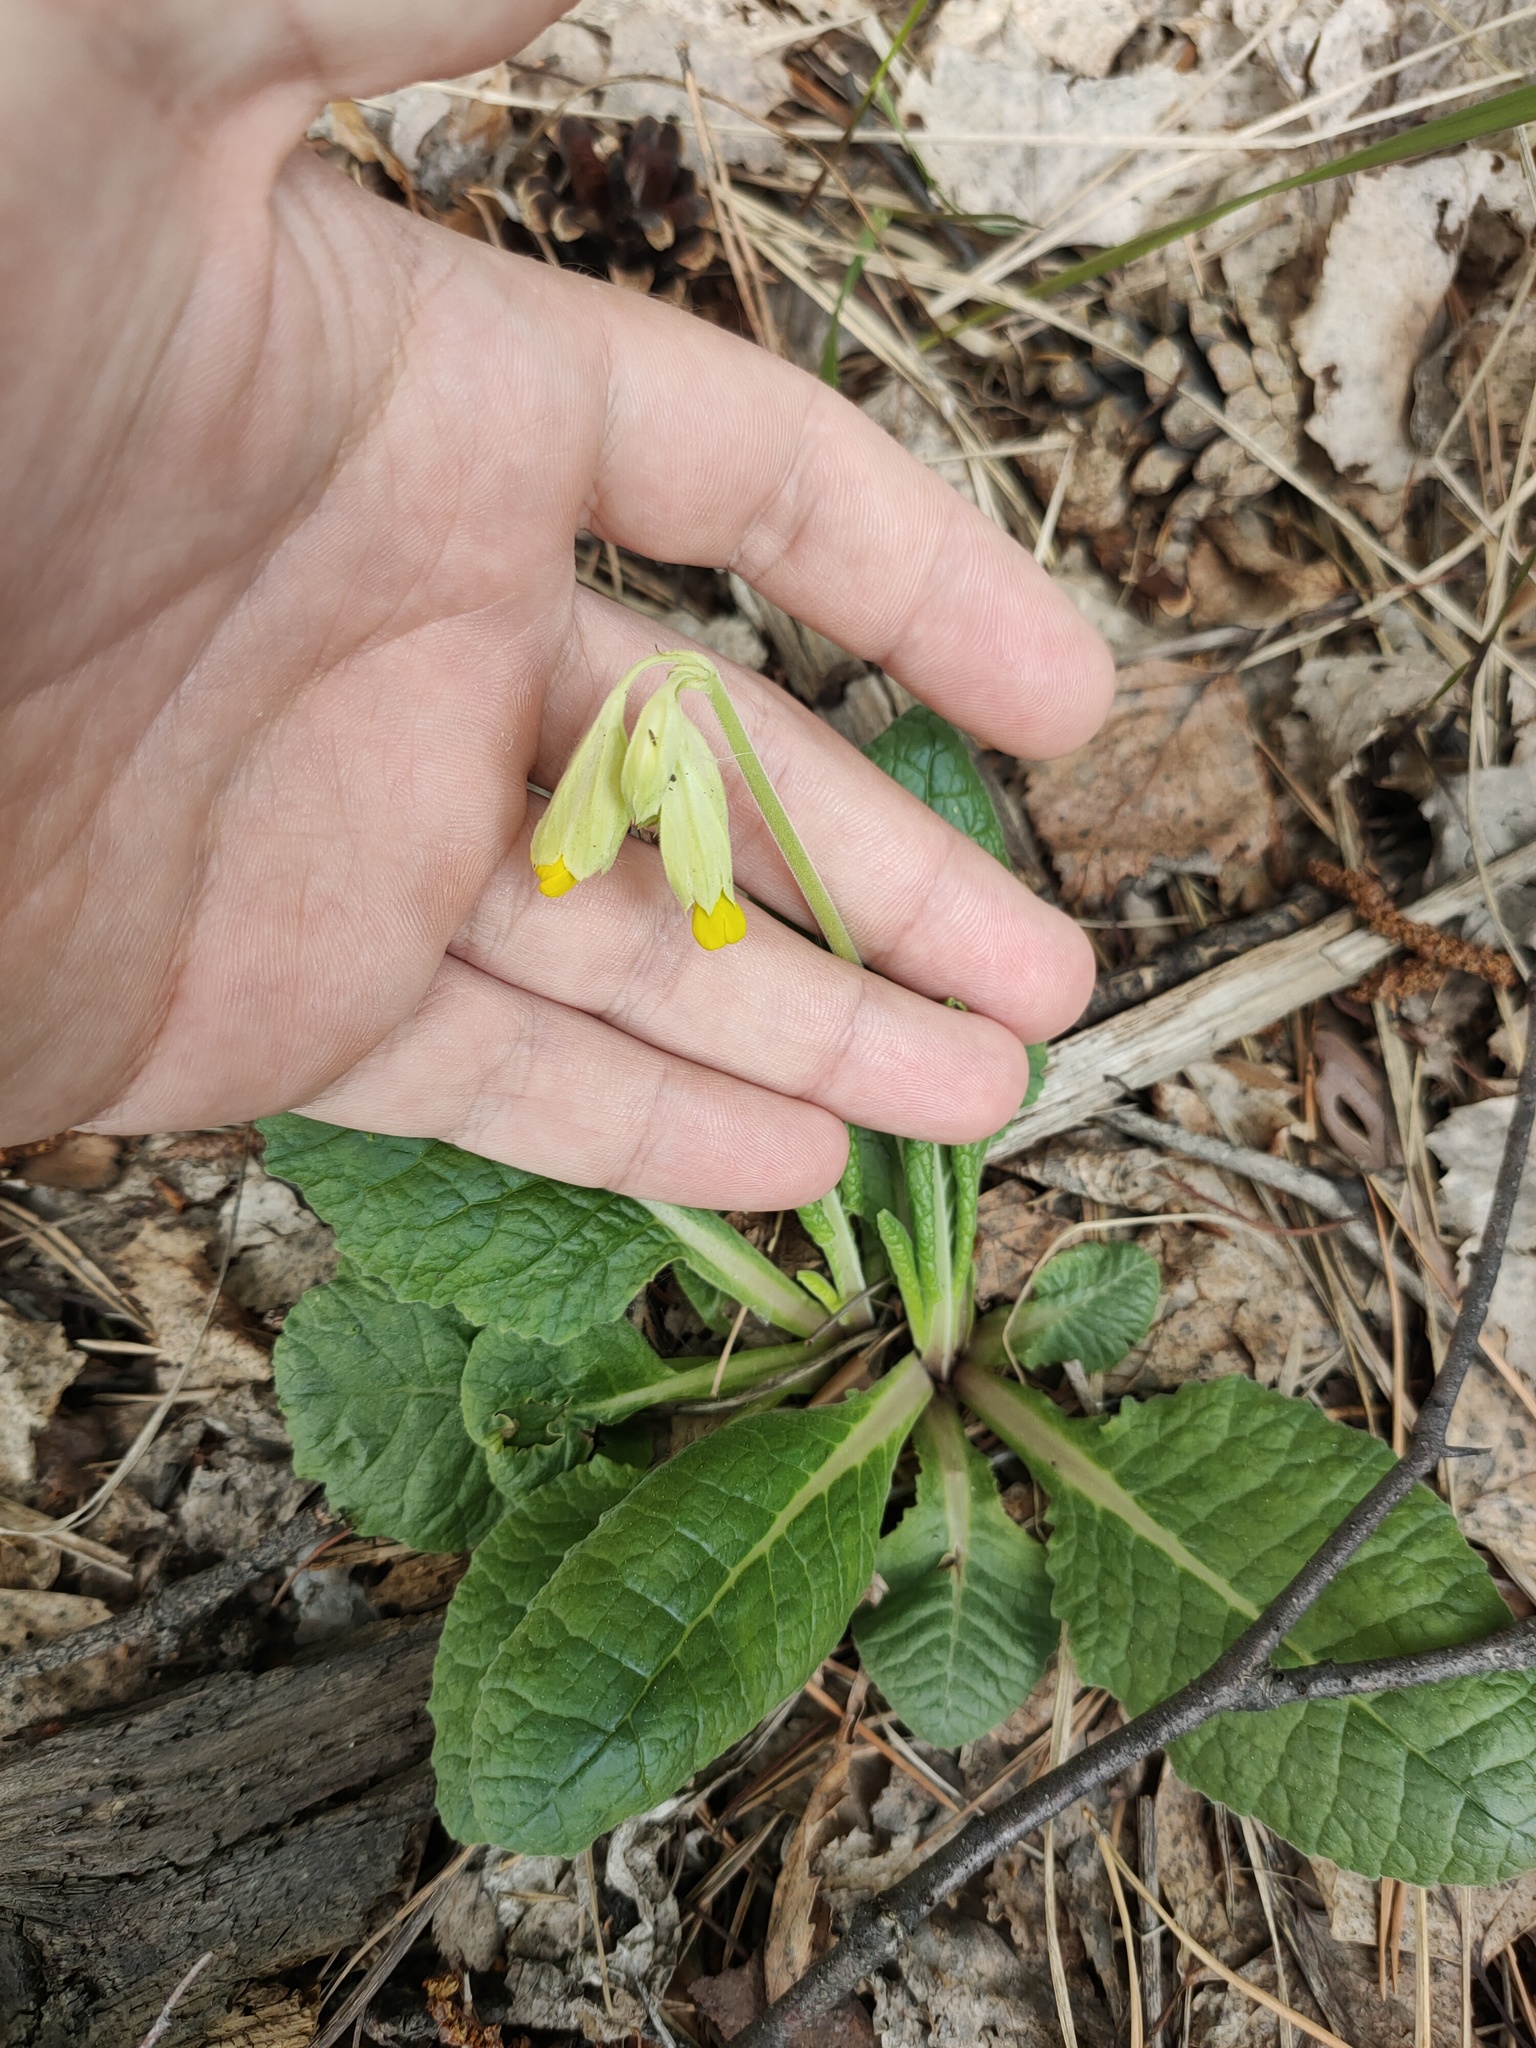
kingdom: Plantae
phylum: Tracheophyta
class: Magnoliopsida
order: Ericales
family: Primulaceae
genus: Primula
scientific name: Primula veris
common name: Cowslip
